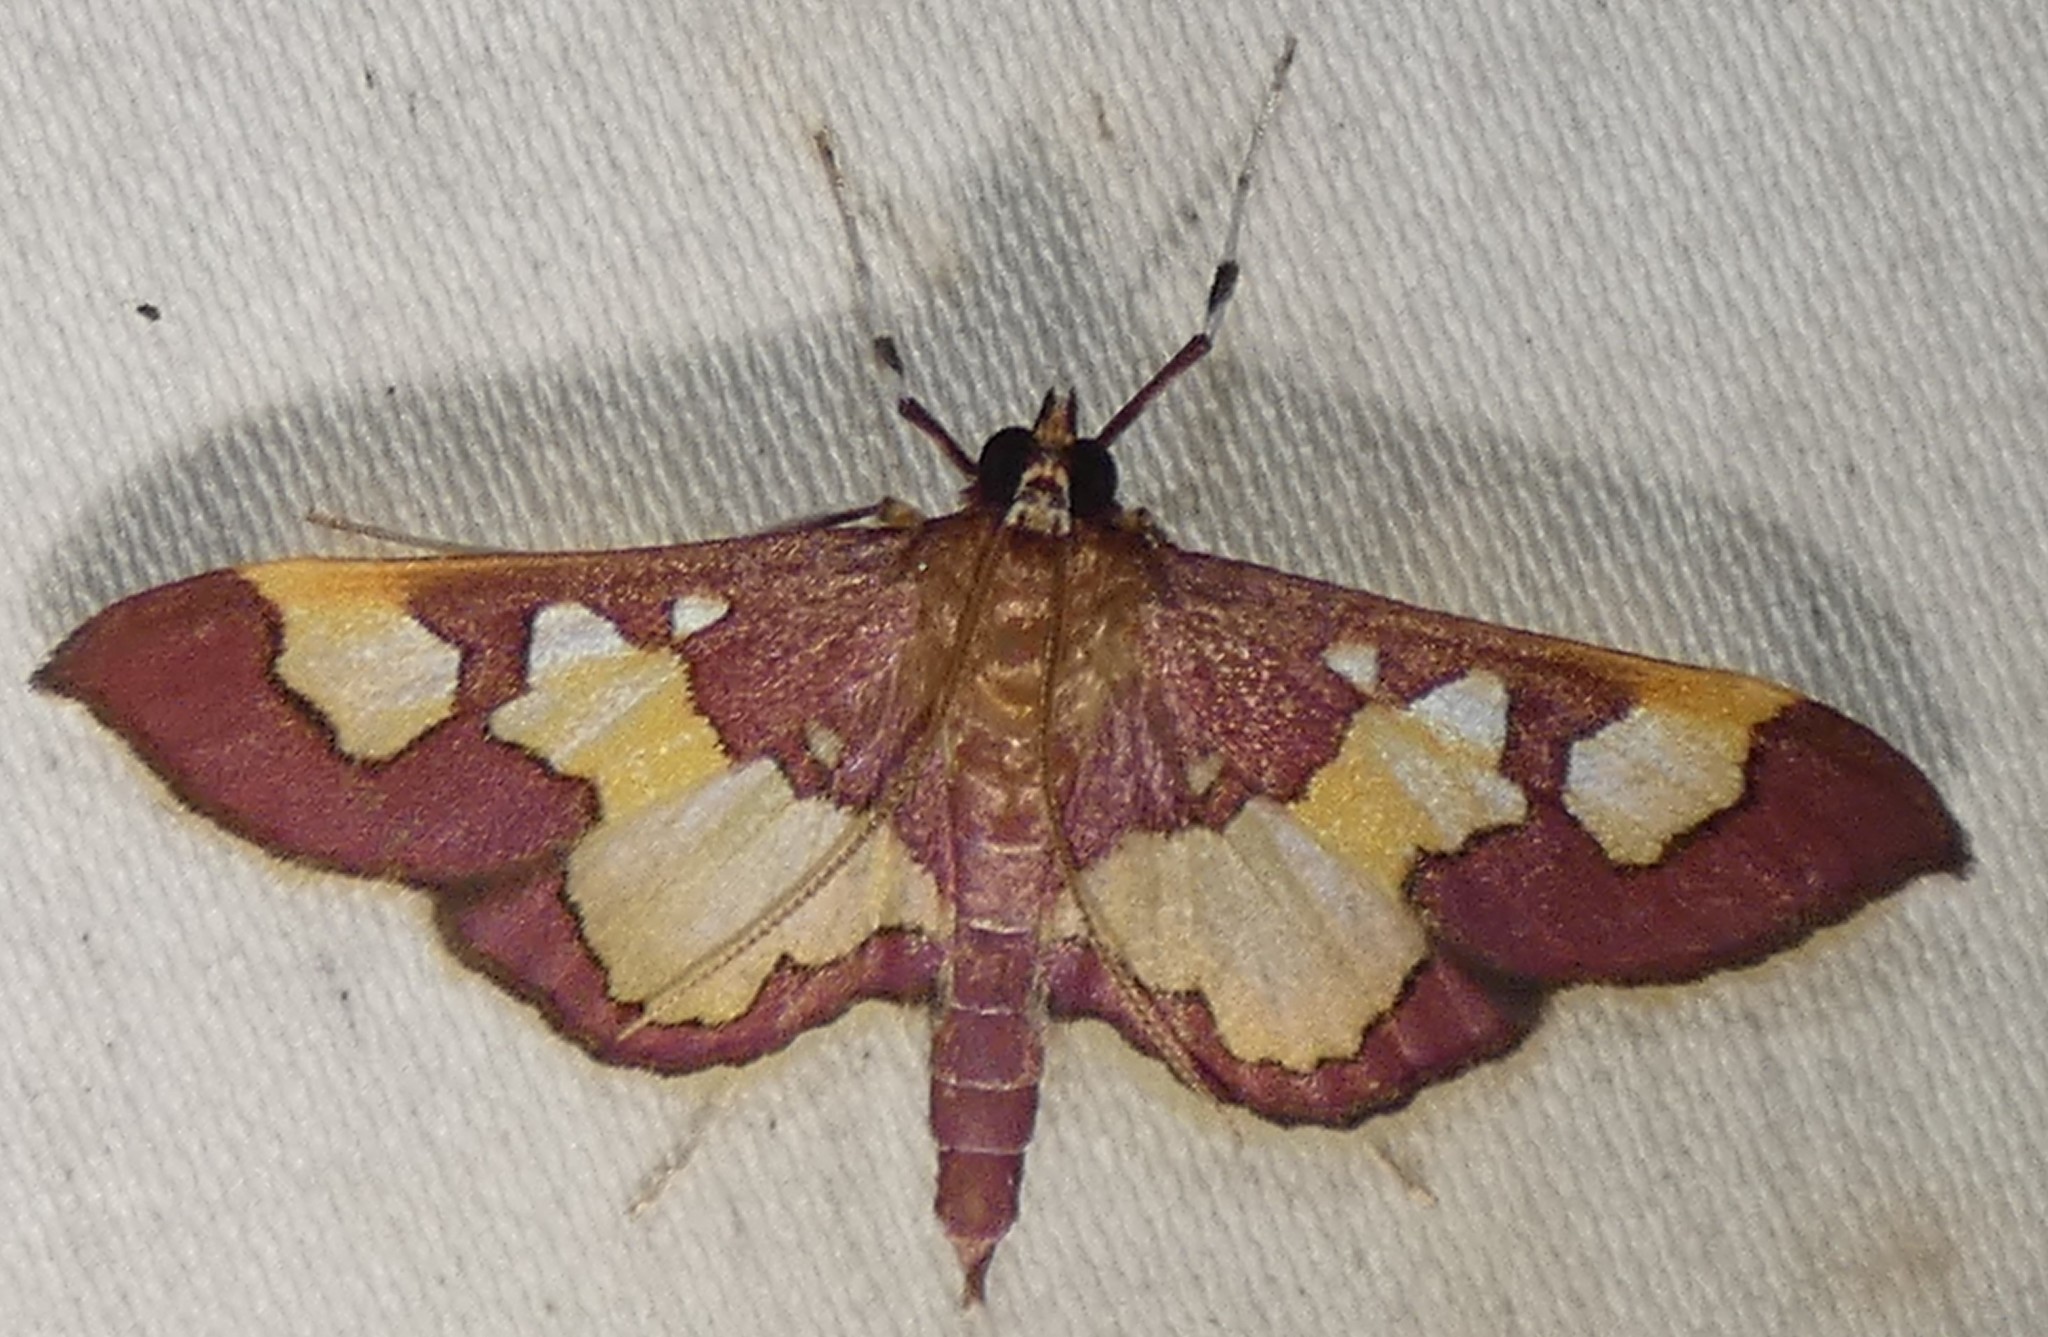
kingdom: Animalia
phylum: Arthropoda
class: Insecta
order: Lepidoptera
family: Crambidae
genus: Colomychus
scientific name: Colomychus talis
